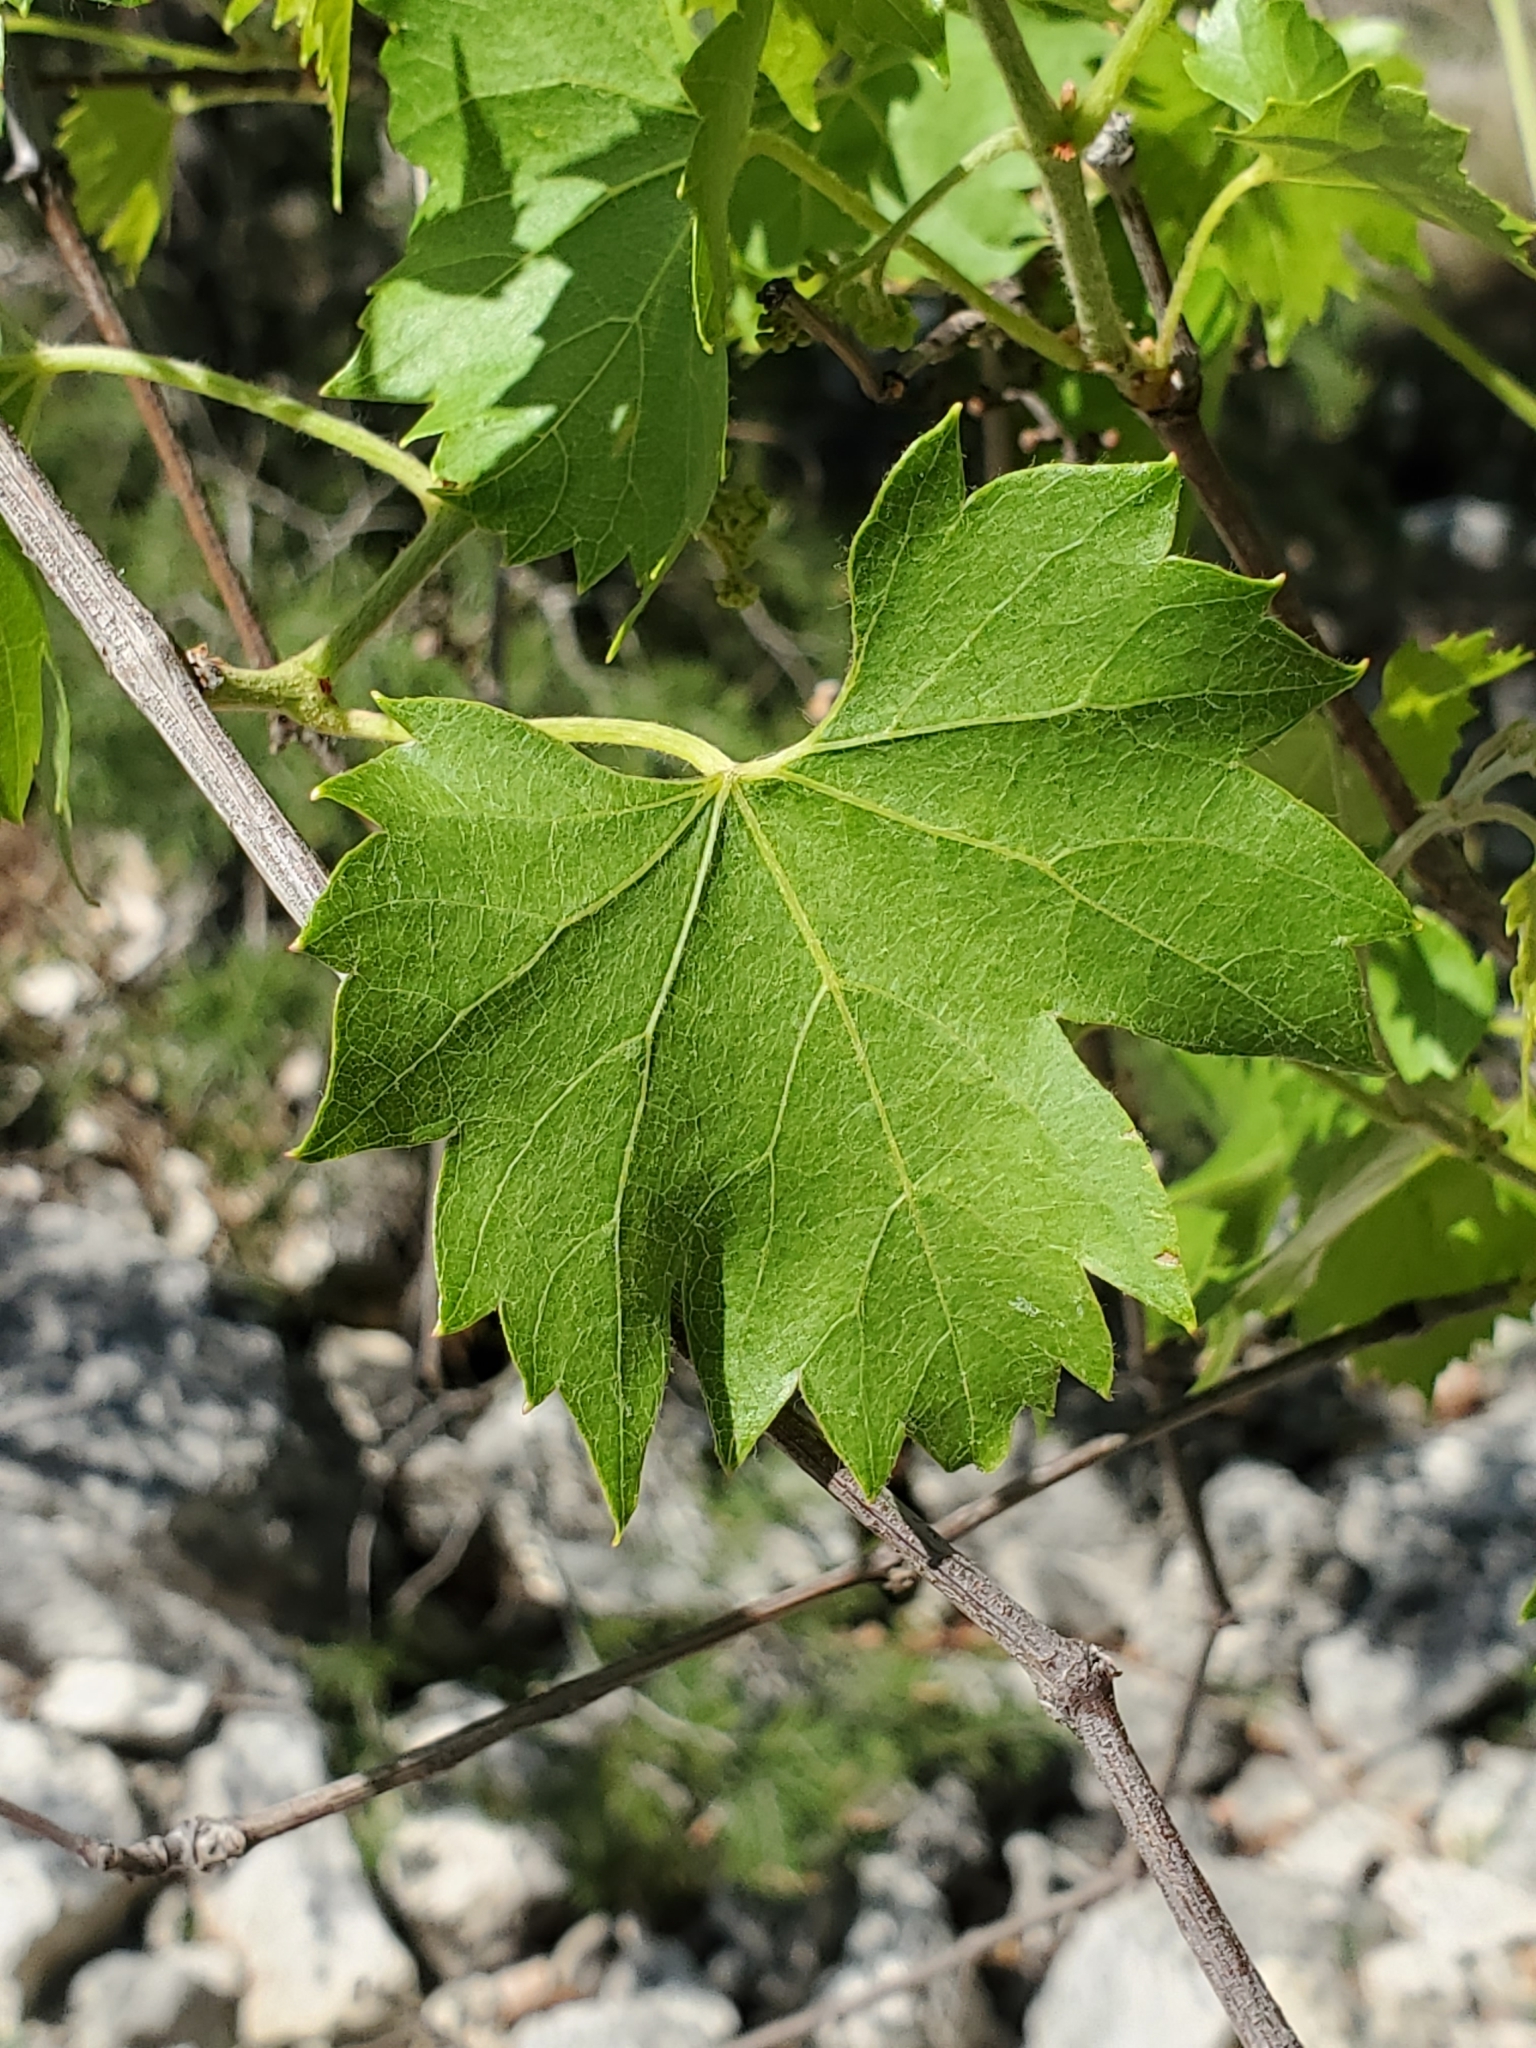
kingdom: Plantae
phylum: Tracheophyta
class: Magnoliopsida
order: Vitales
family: Vitaceae
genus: Vitis
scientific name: Vitis monticola
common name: Mountain grape
